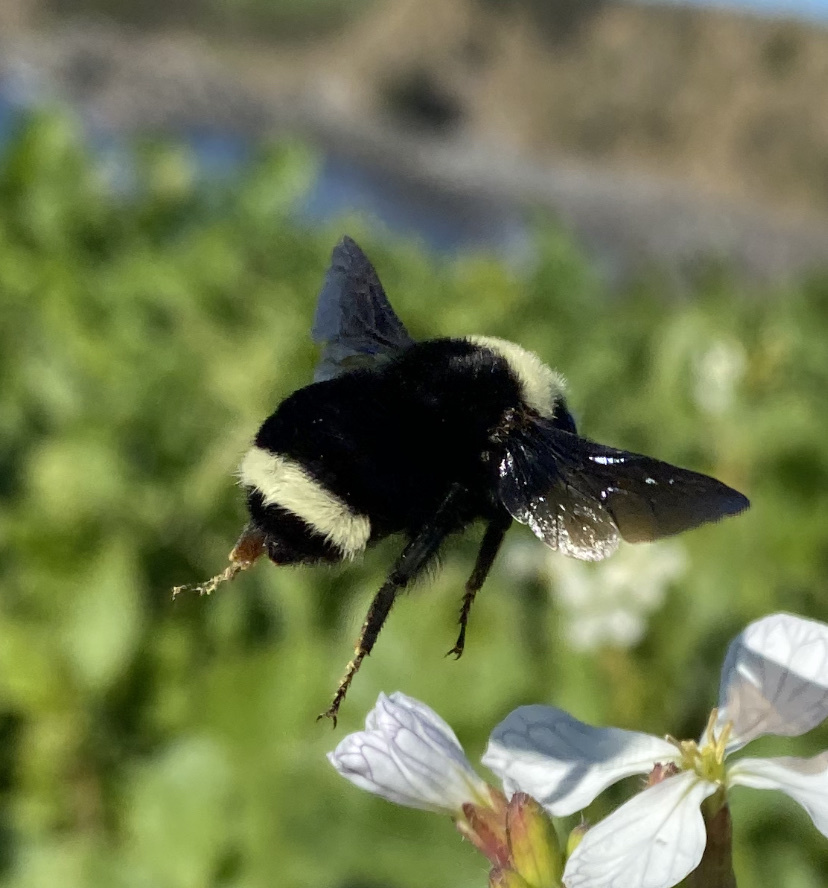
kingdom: Animalia
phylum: Arthropoda
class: Insecta
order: Hymenoptera
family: Apidae
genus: Bombus
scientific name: Bombus vosnesenskii
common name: Vosnesensky bumble bee
